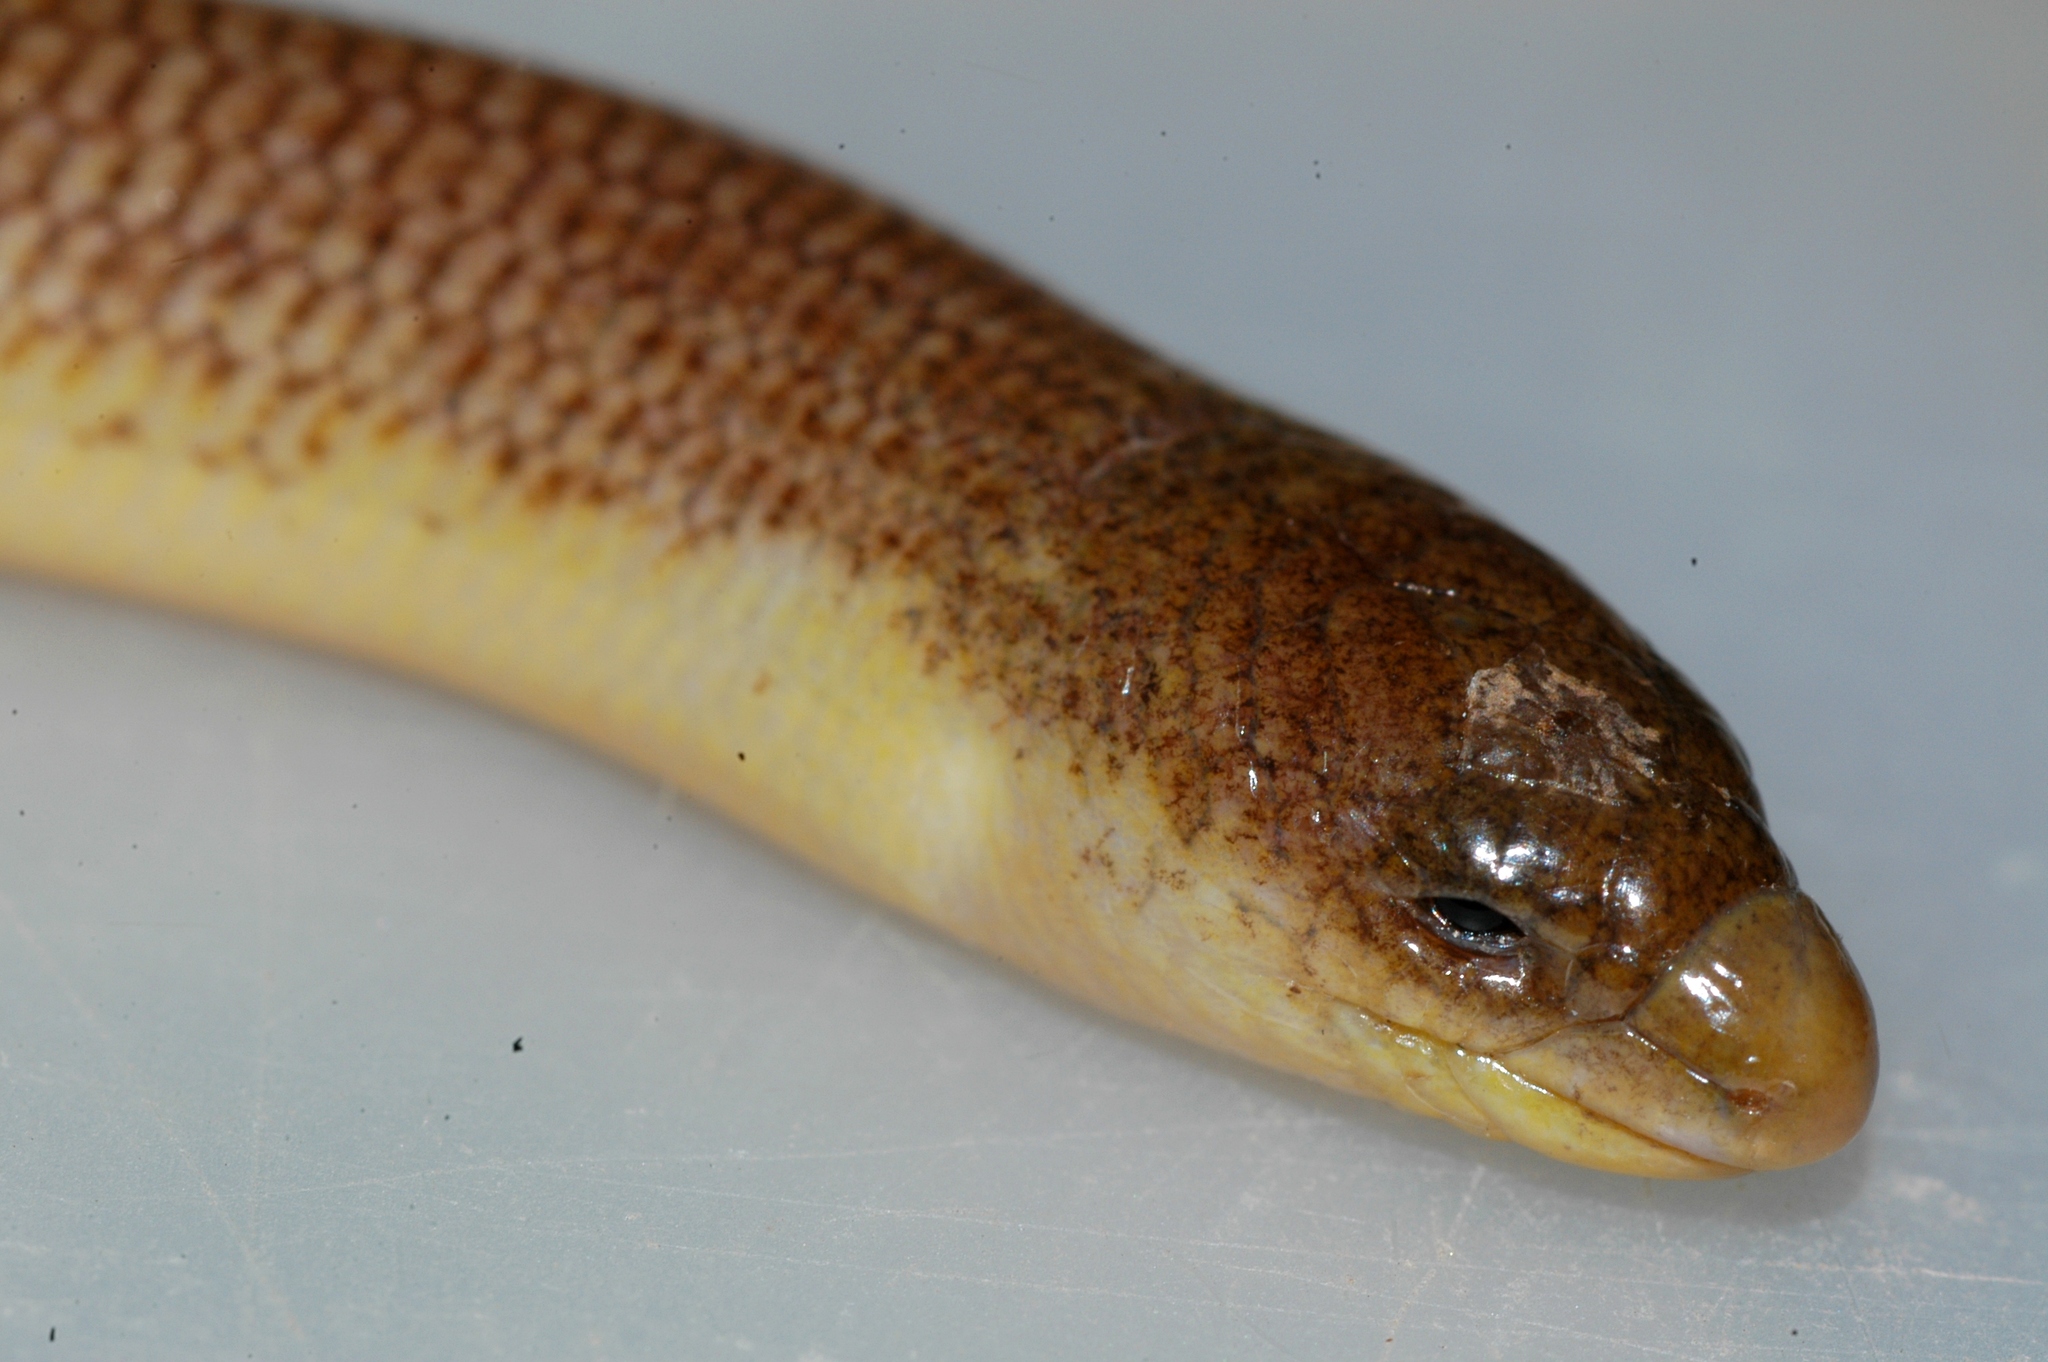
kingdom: Animalia
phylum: Chordata
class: Squamata
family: Scincidae
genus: Acontias
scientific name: Acontias namaquensis
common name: Namaqua lance skink
